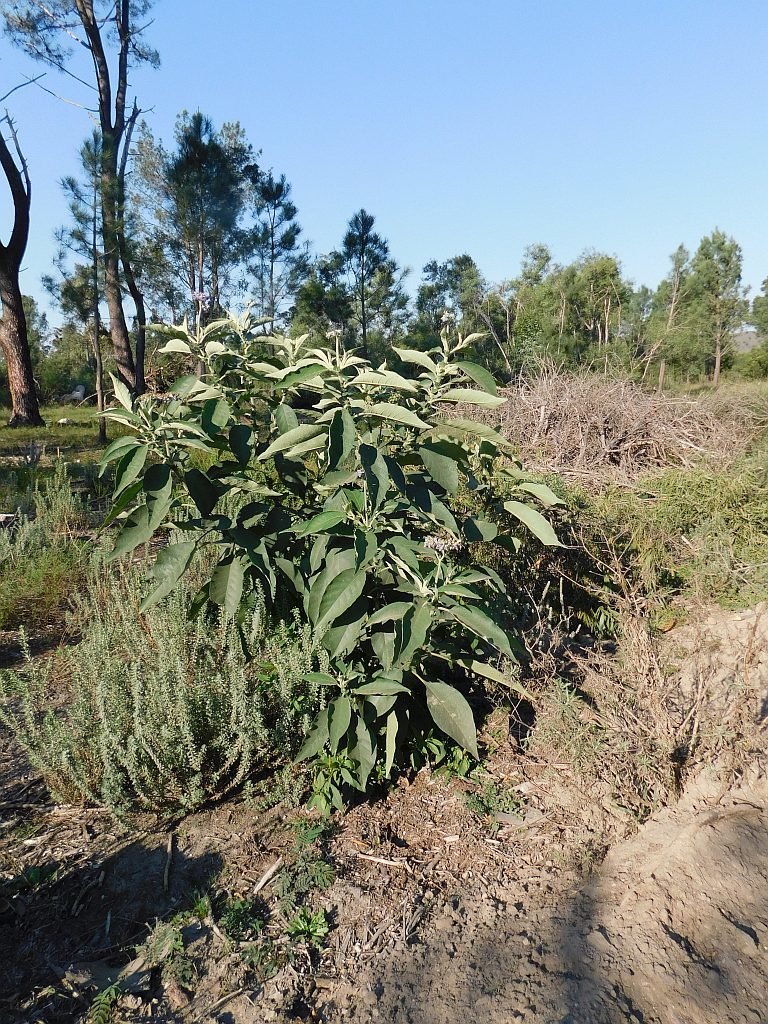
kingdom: Plantae
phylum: Tracheophyta
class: Magnoliopsida
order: Solanales
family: Solanaceae
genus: Solanum
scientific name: Solanum mauritianum
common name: Earleaf nightshade
